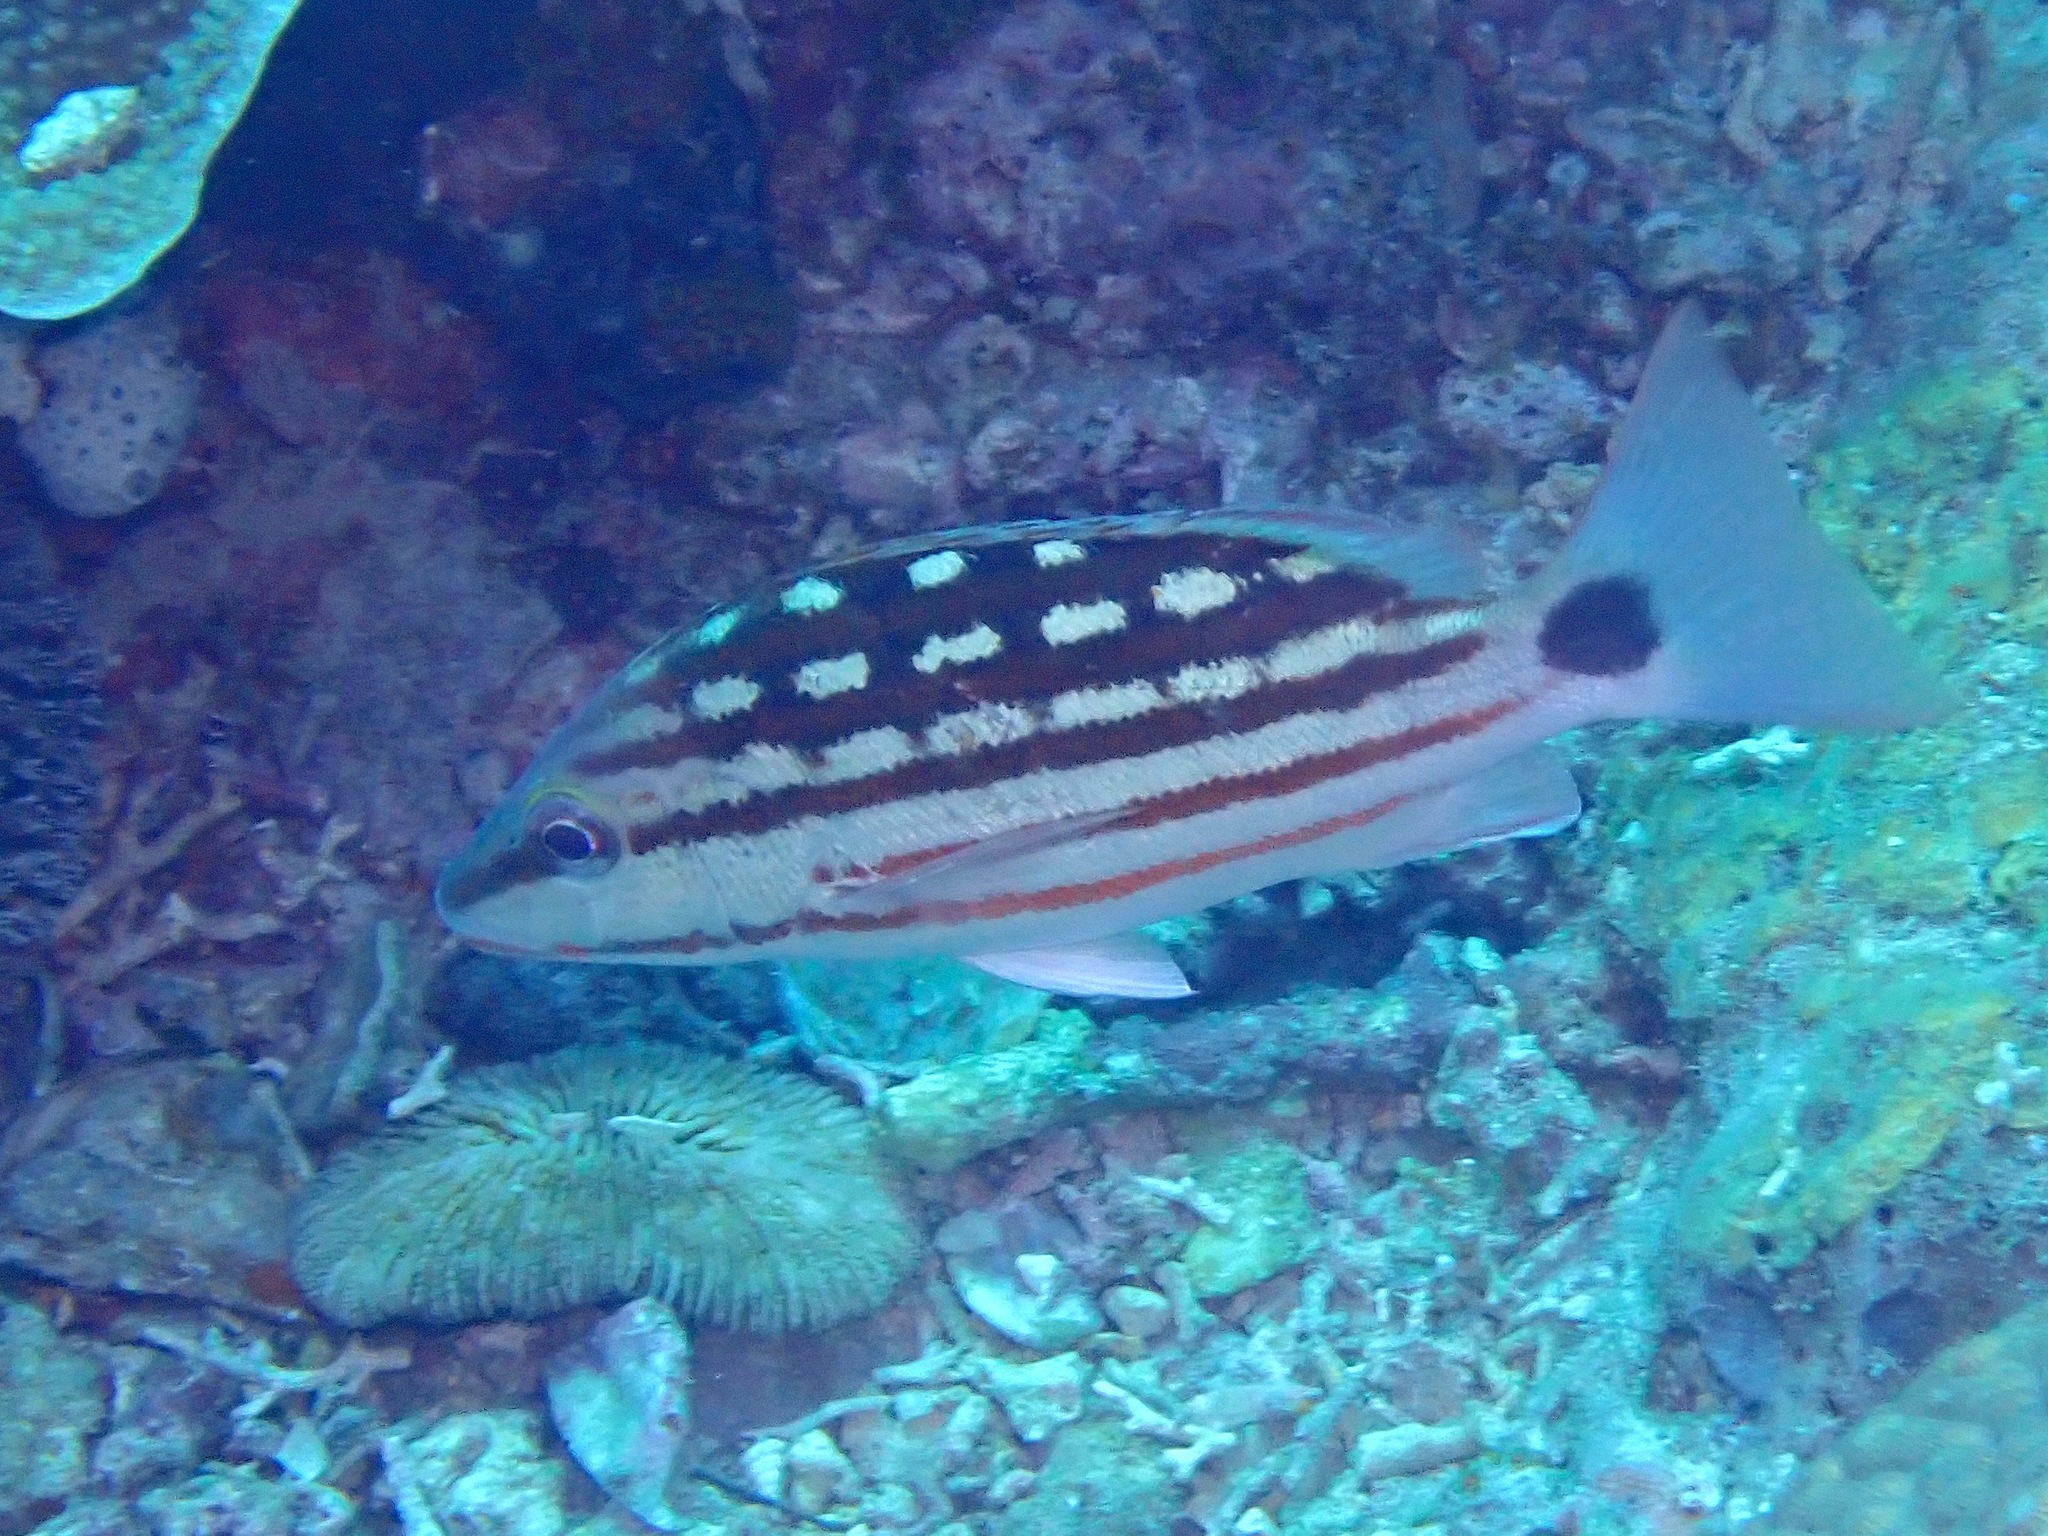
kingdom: Animalia
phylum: Chordata
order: Perciformes
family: Lutjanidae
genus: Lutjanus
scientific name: Lutjanus decussatus
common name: Checkered snapper
